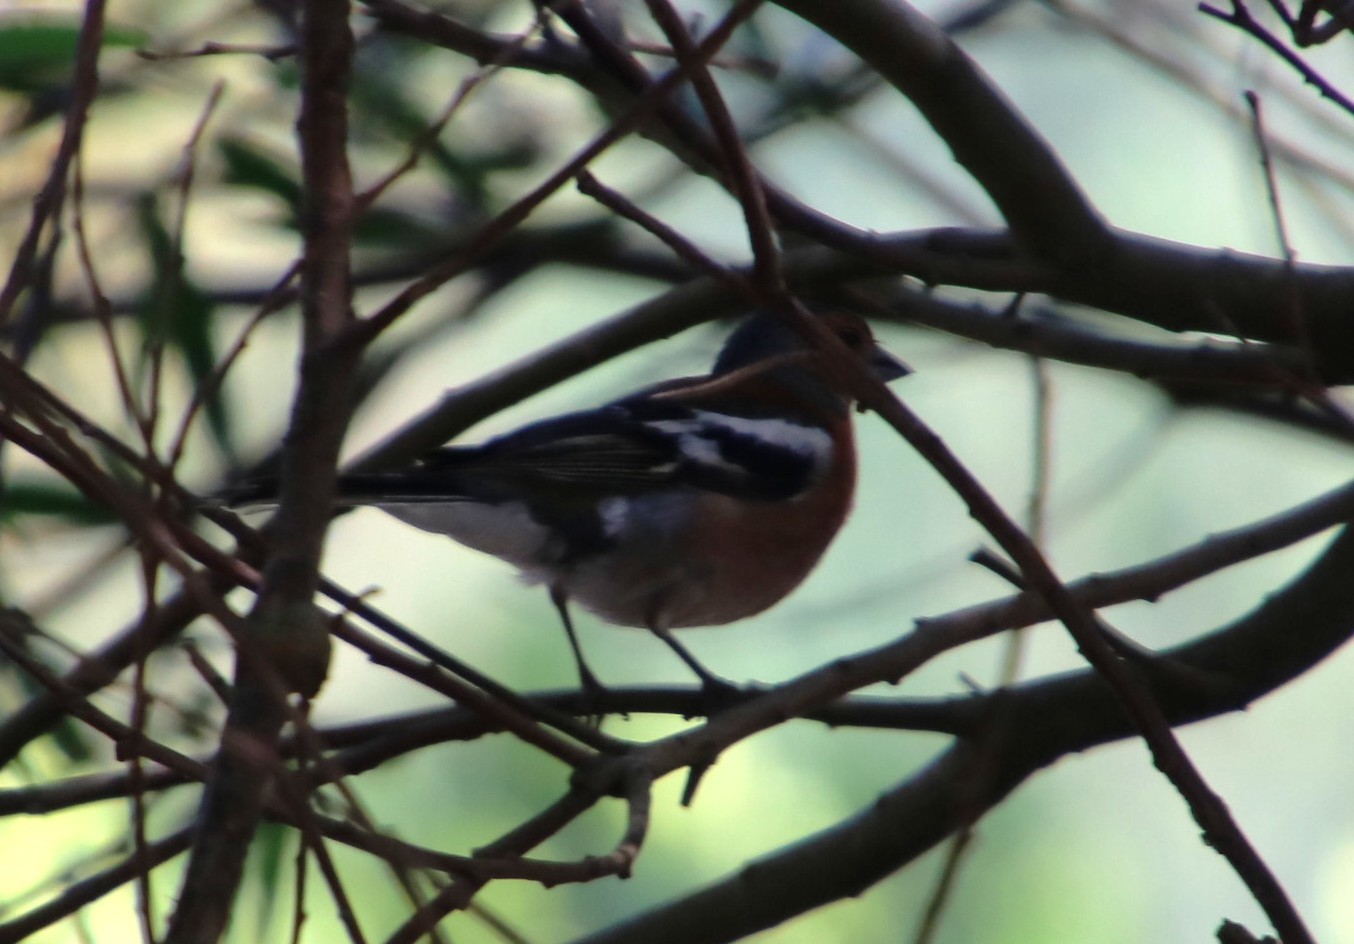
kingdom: Animalia
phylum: Chordata
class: Aves
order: Passeriformes
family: Fringillidae
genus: Fringilla
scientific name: Fringilla coelebs
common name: Common chaffinch
